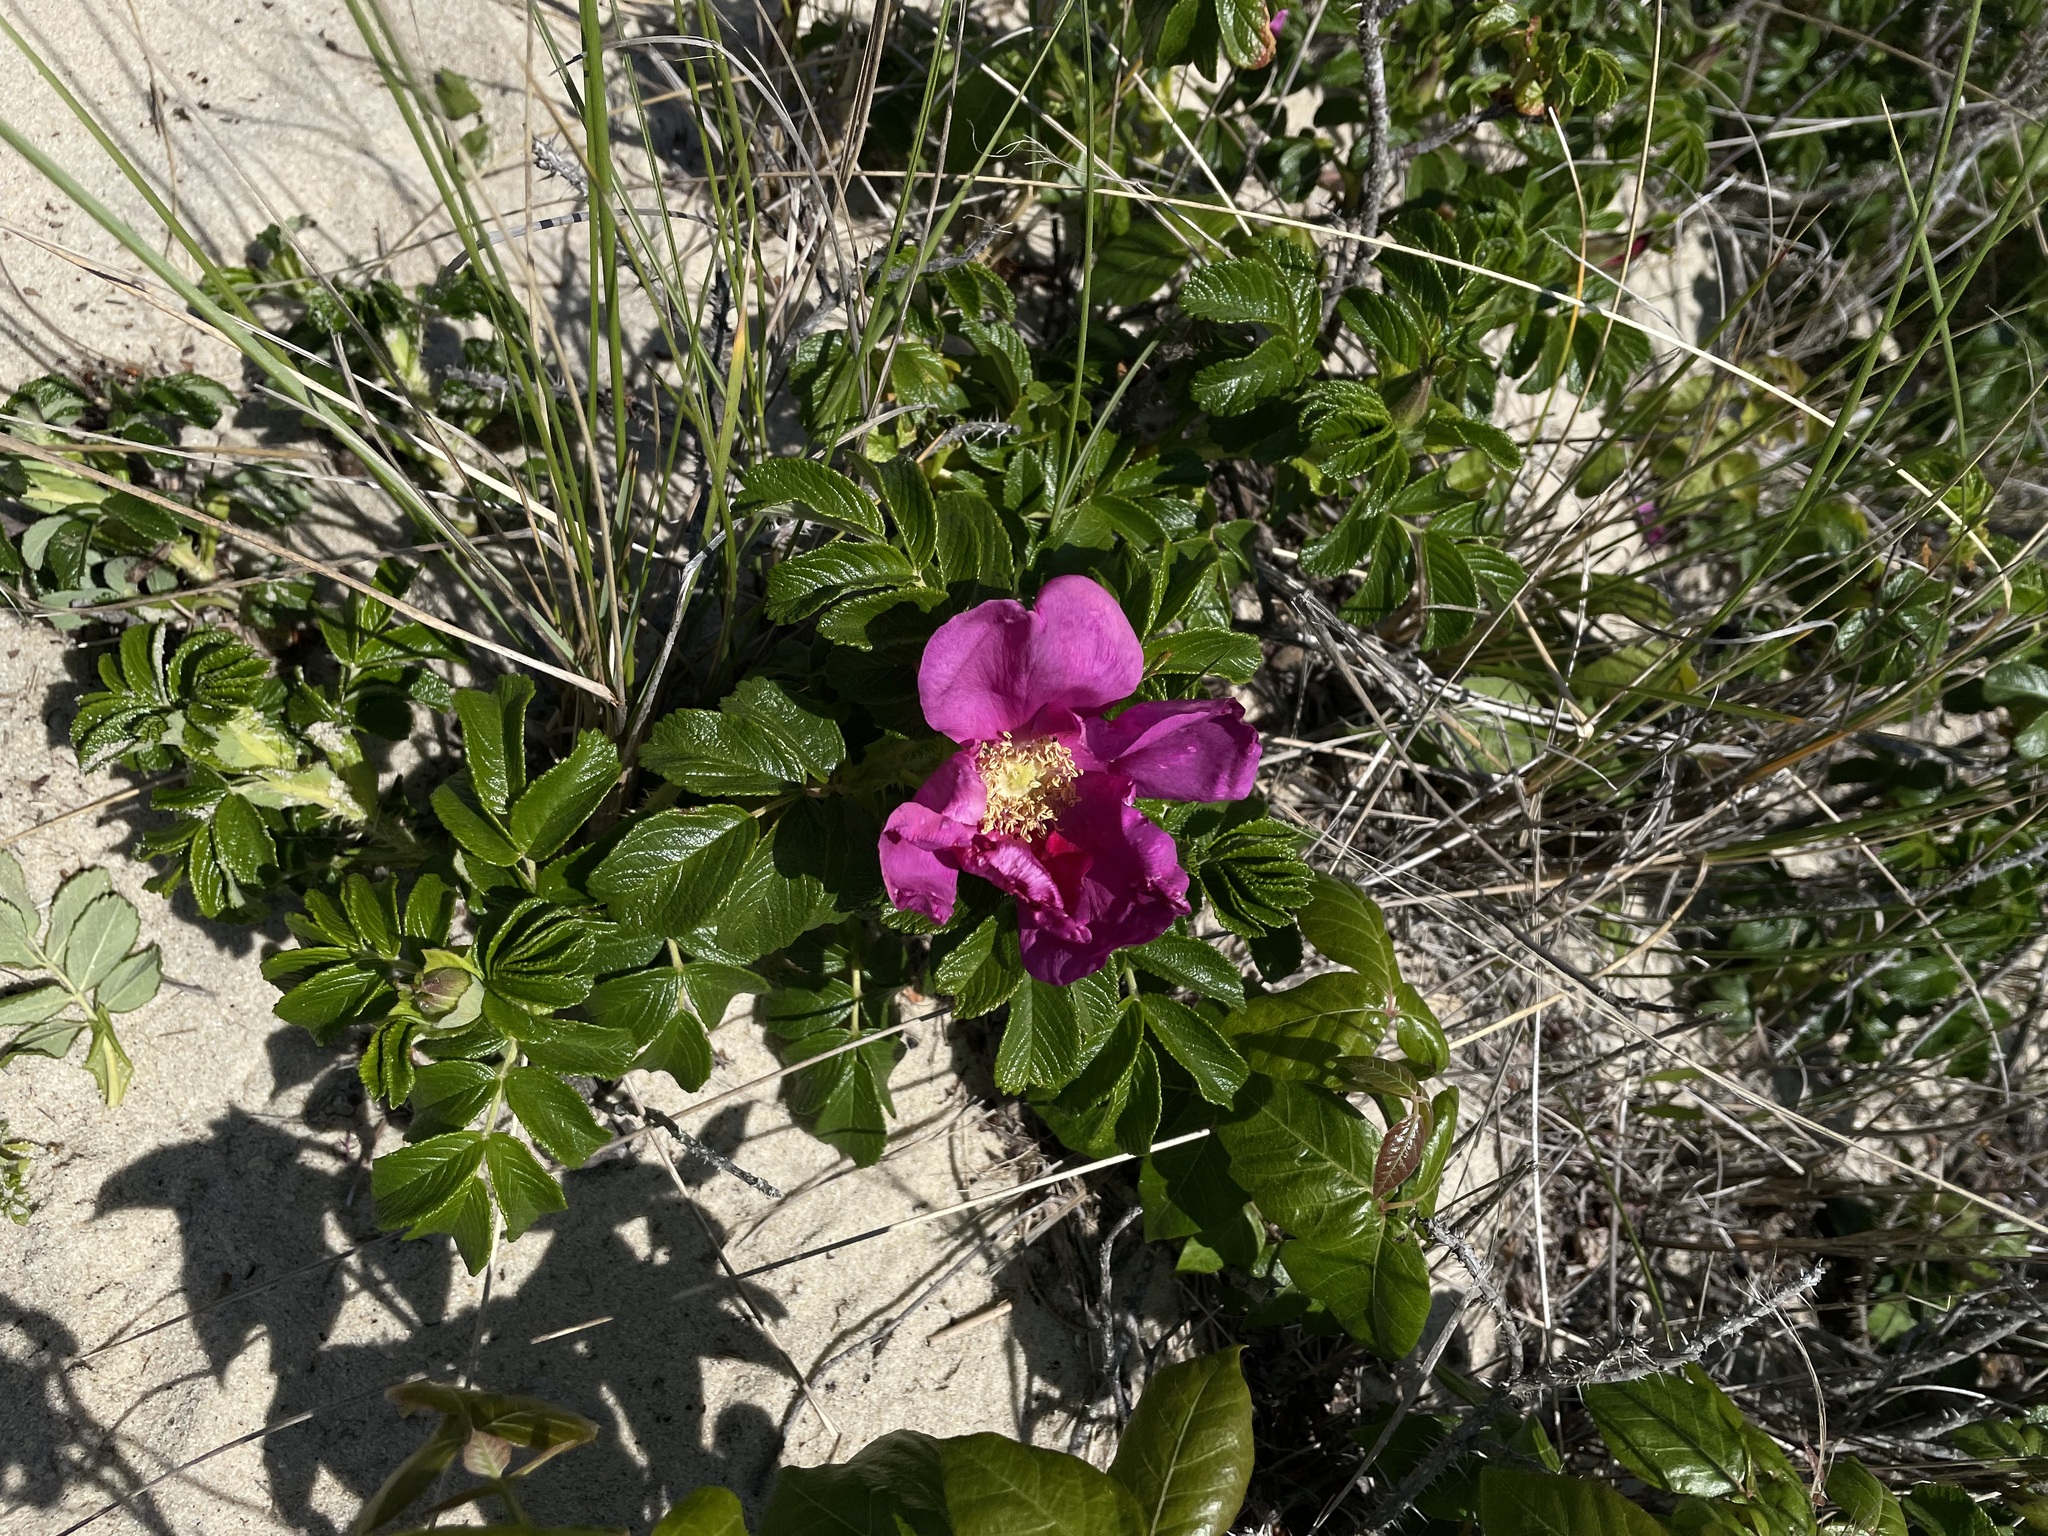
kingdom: Plantae
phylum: Tracheophyta
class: Magnoliopsida
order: Rosales
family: Rosaceae
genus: Rosa
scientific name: Rosa rugosa
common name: Japanese rose
